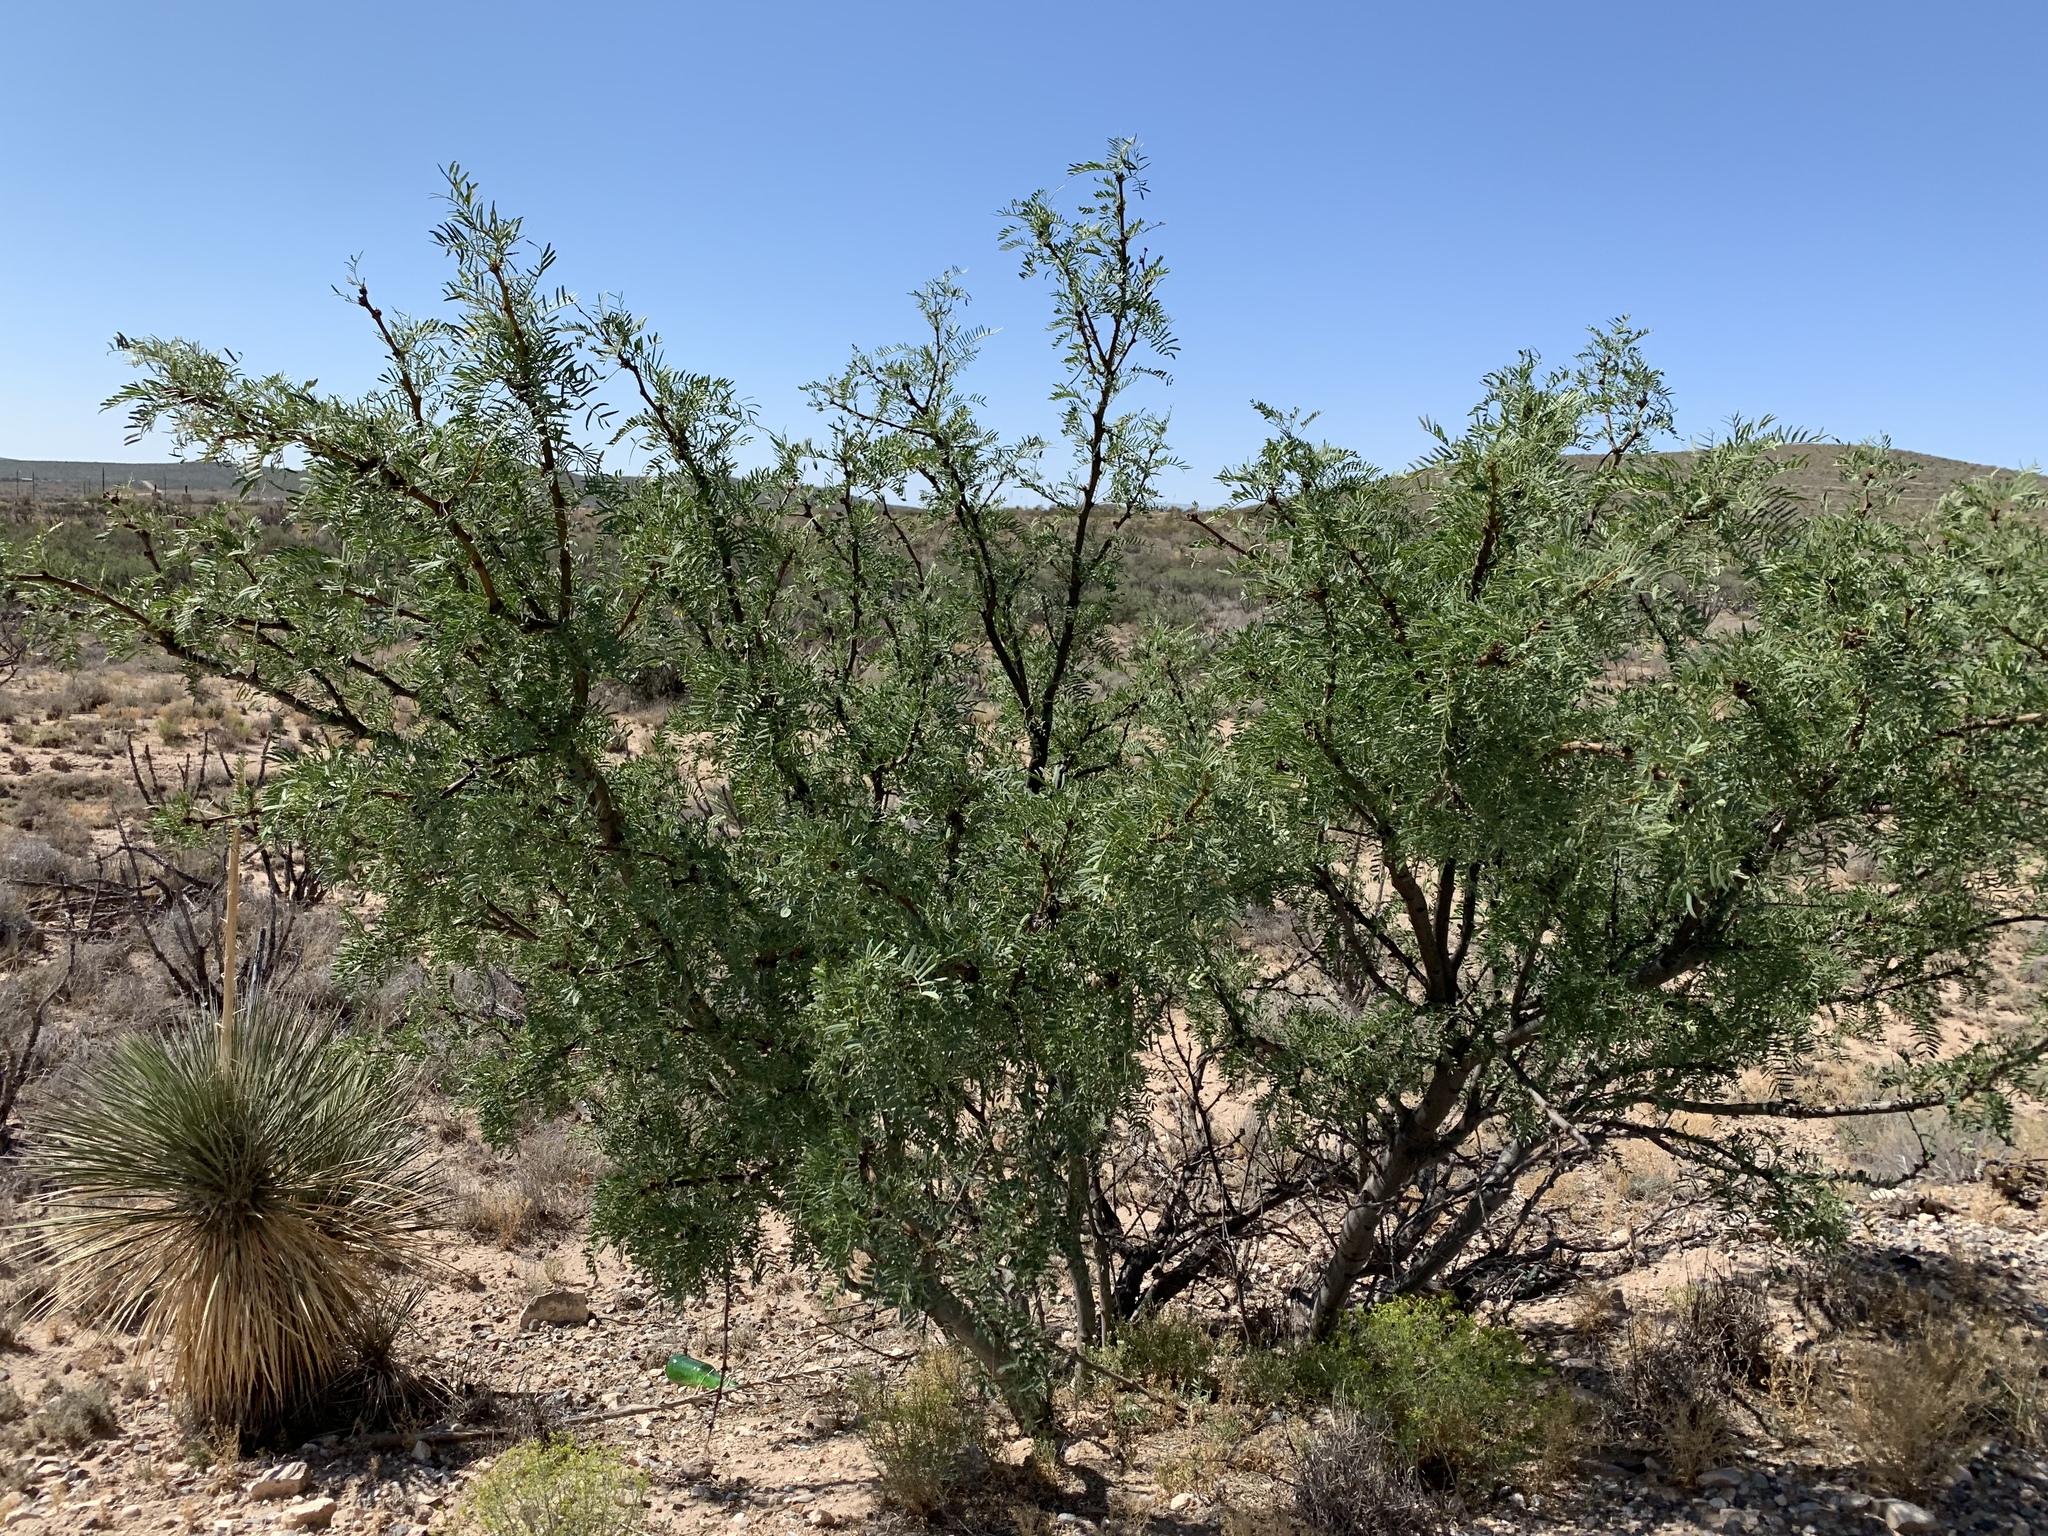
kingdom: Plantae
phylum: Tracheophyta
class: Magnoliopsida
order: Fabales
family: Fabaceae
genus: Prosopis
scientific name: Prosopis glandulosa
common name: Honey mesquite
